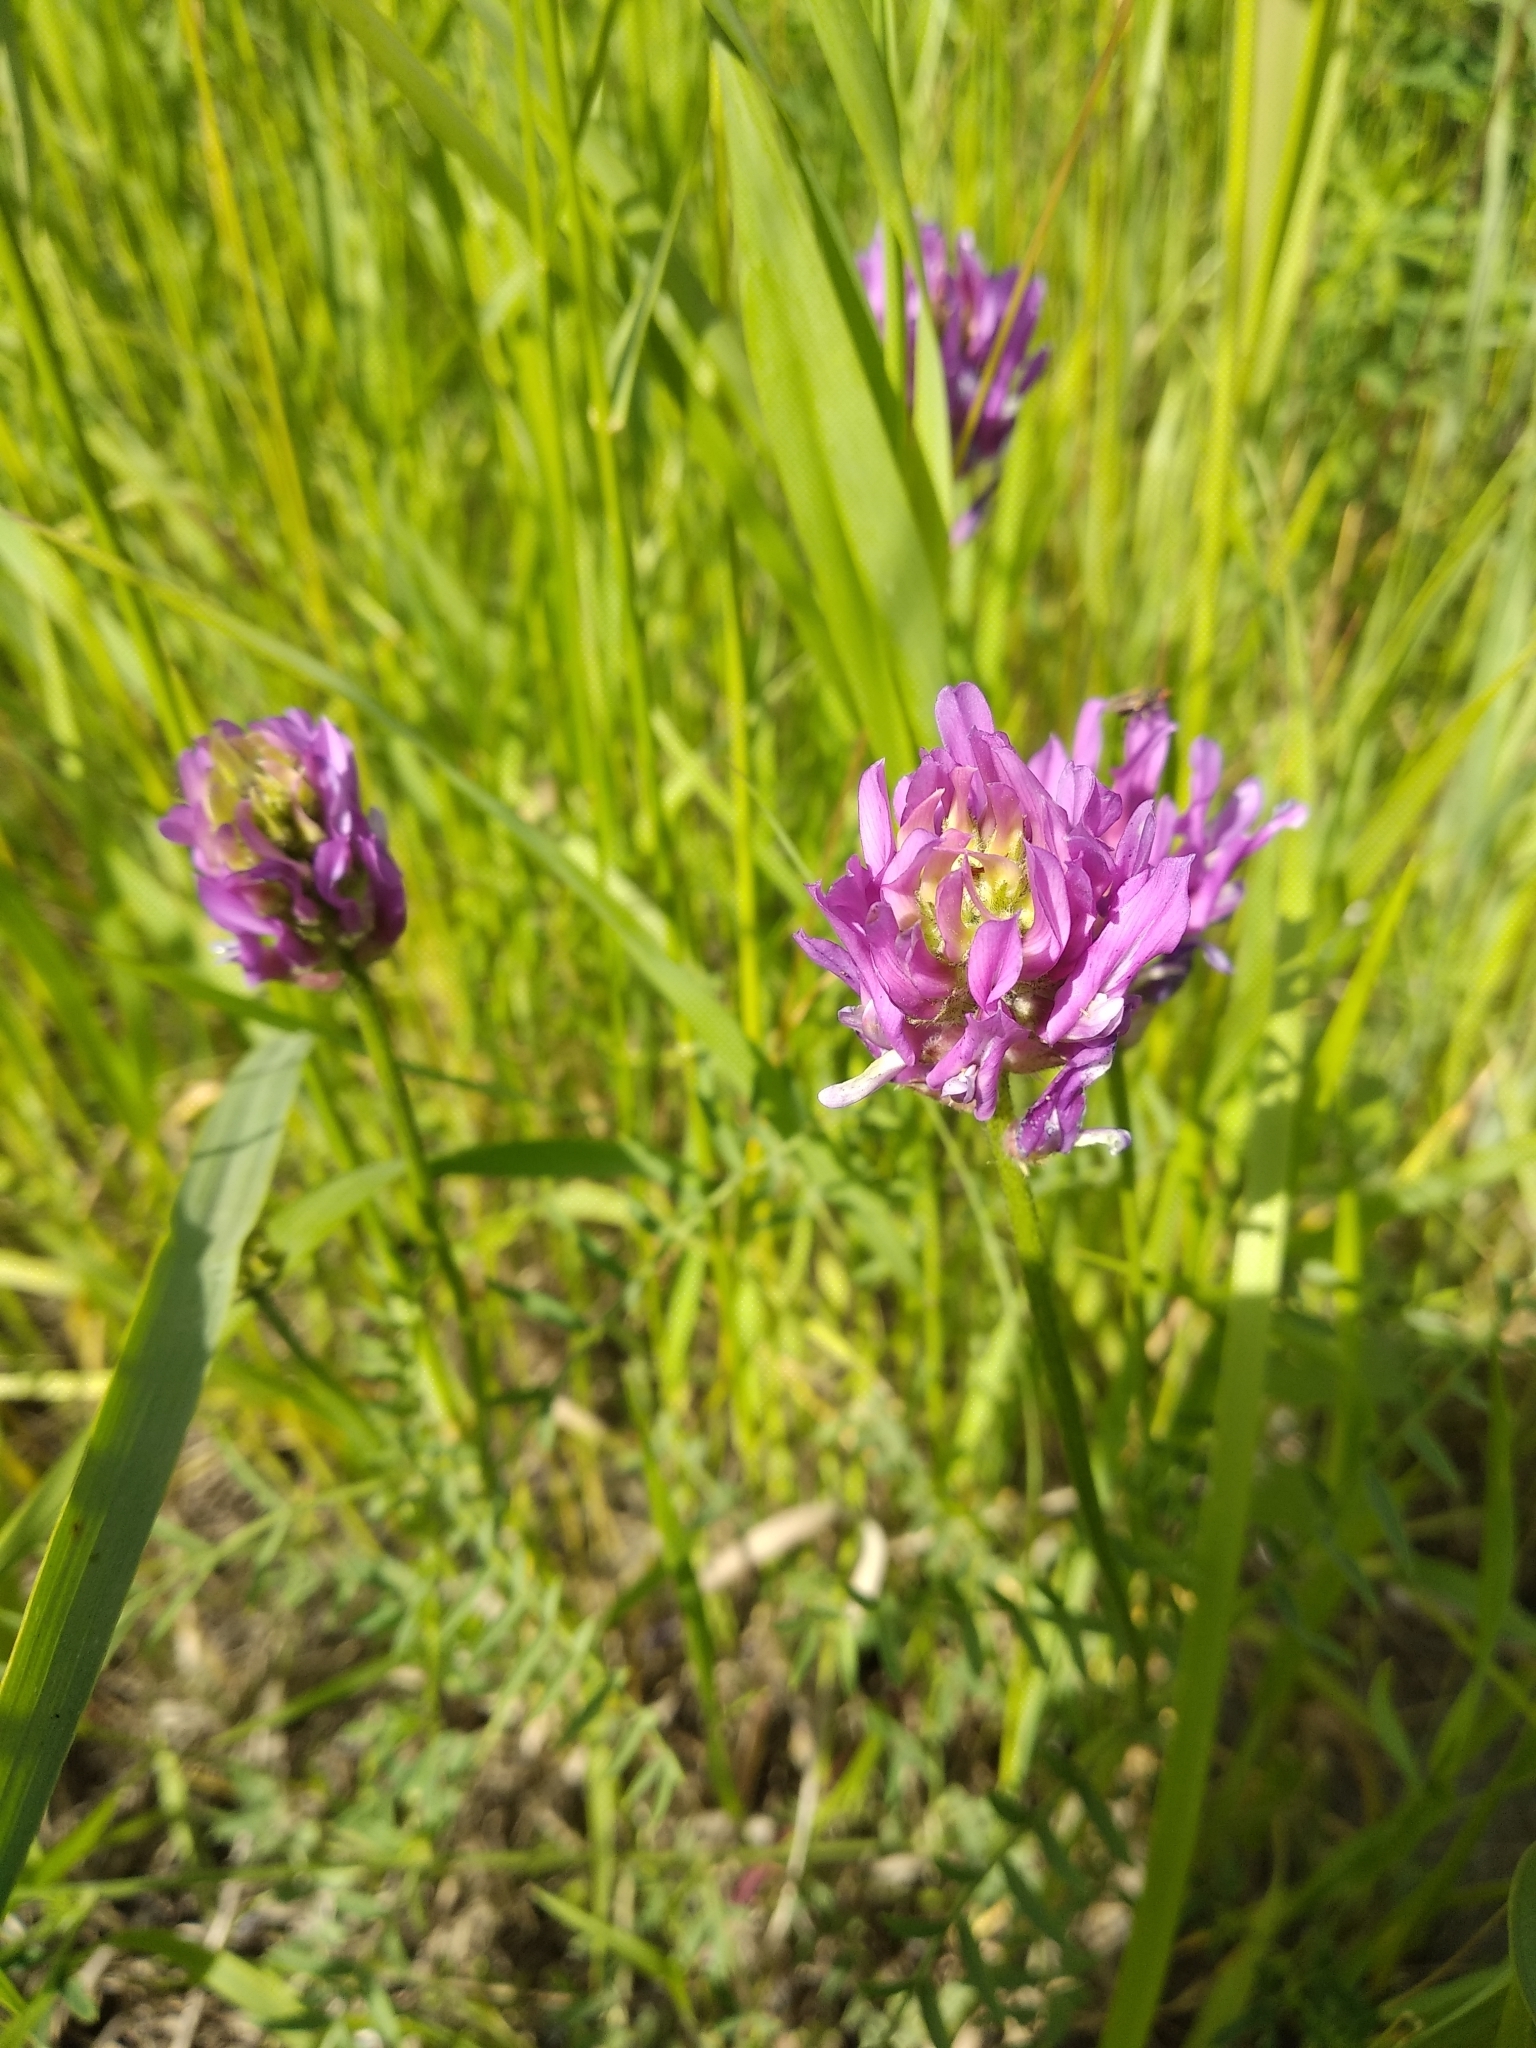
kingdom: Plantae
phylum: Tracheophyta
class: Magnoliopsida
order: Fabales
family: Fabaceae
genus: Astragalus
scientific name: Astragalus onobrychis
